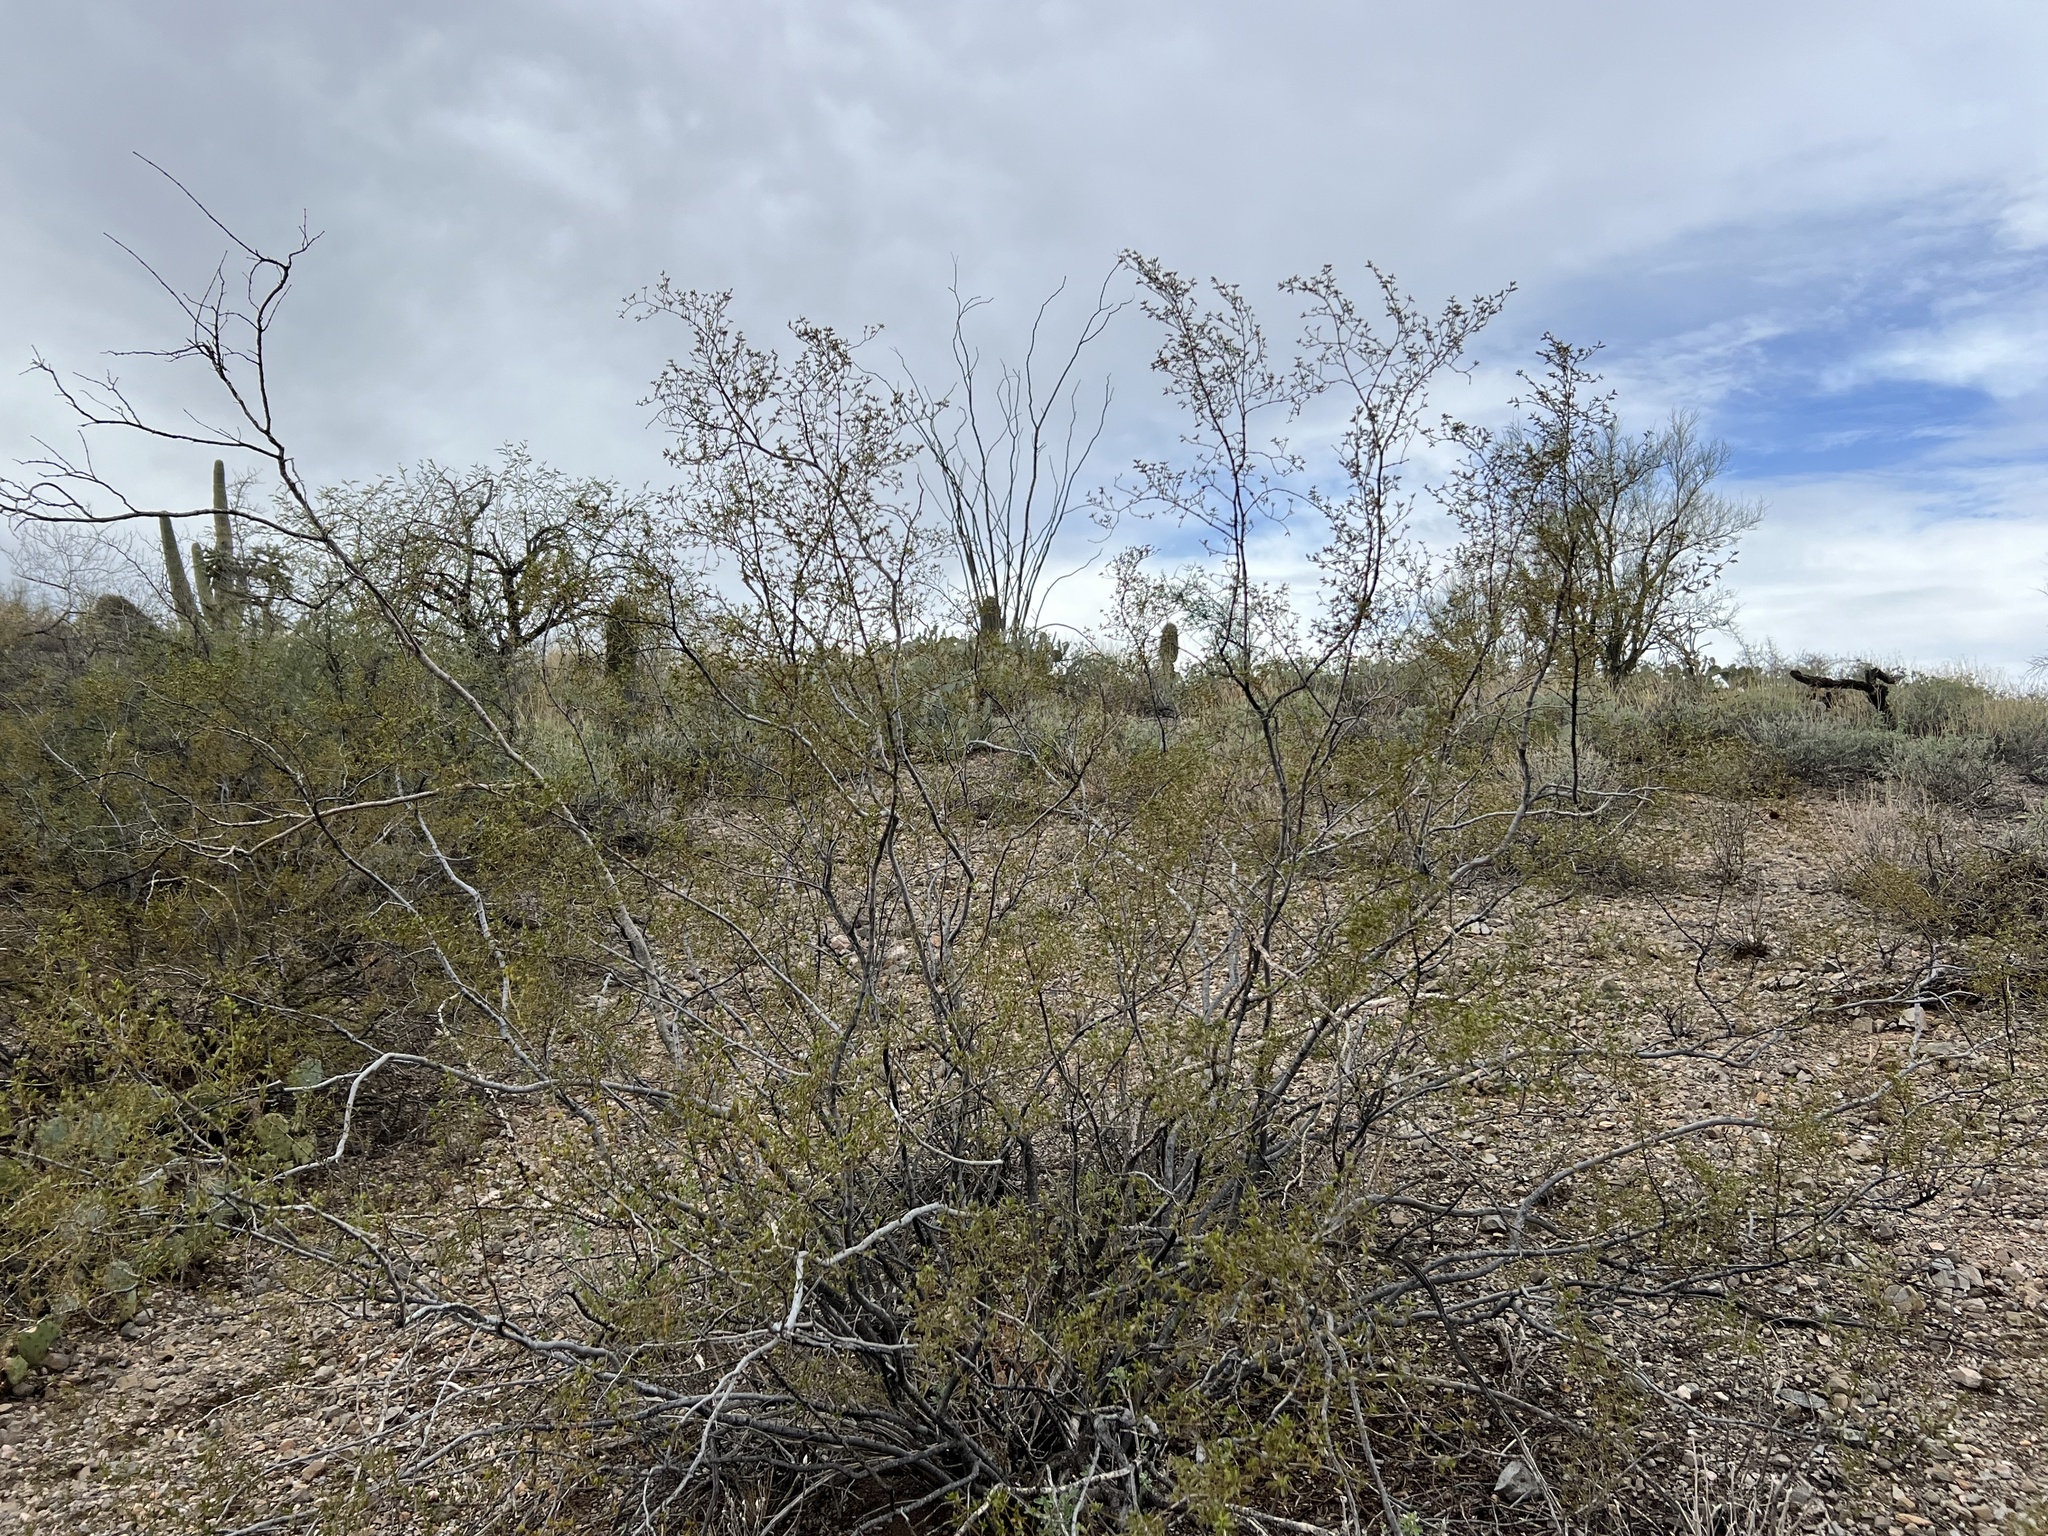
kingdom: Plantae
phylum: Tracheophyta
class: Magnoliopsida
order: Zygophyllales
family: Zygophyllaceae
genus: Larrea
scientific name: Larrea tridentata
